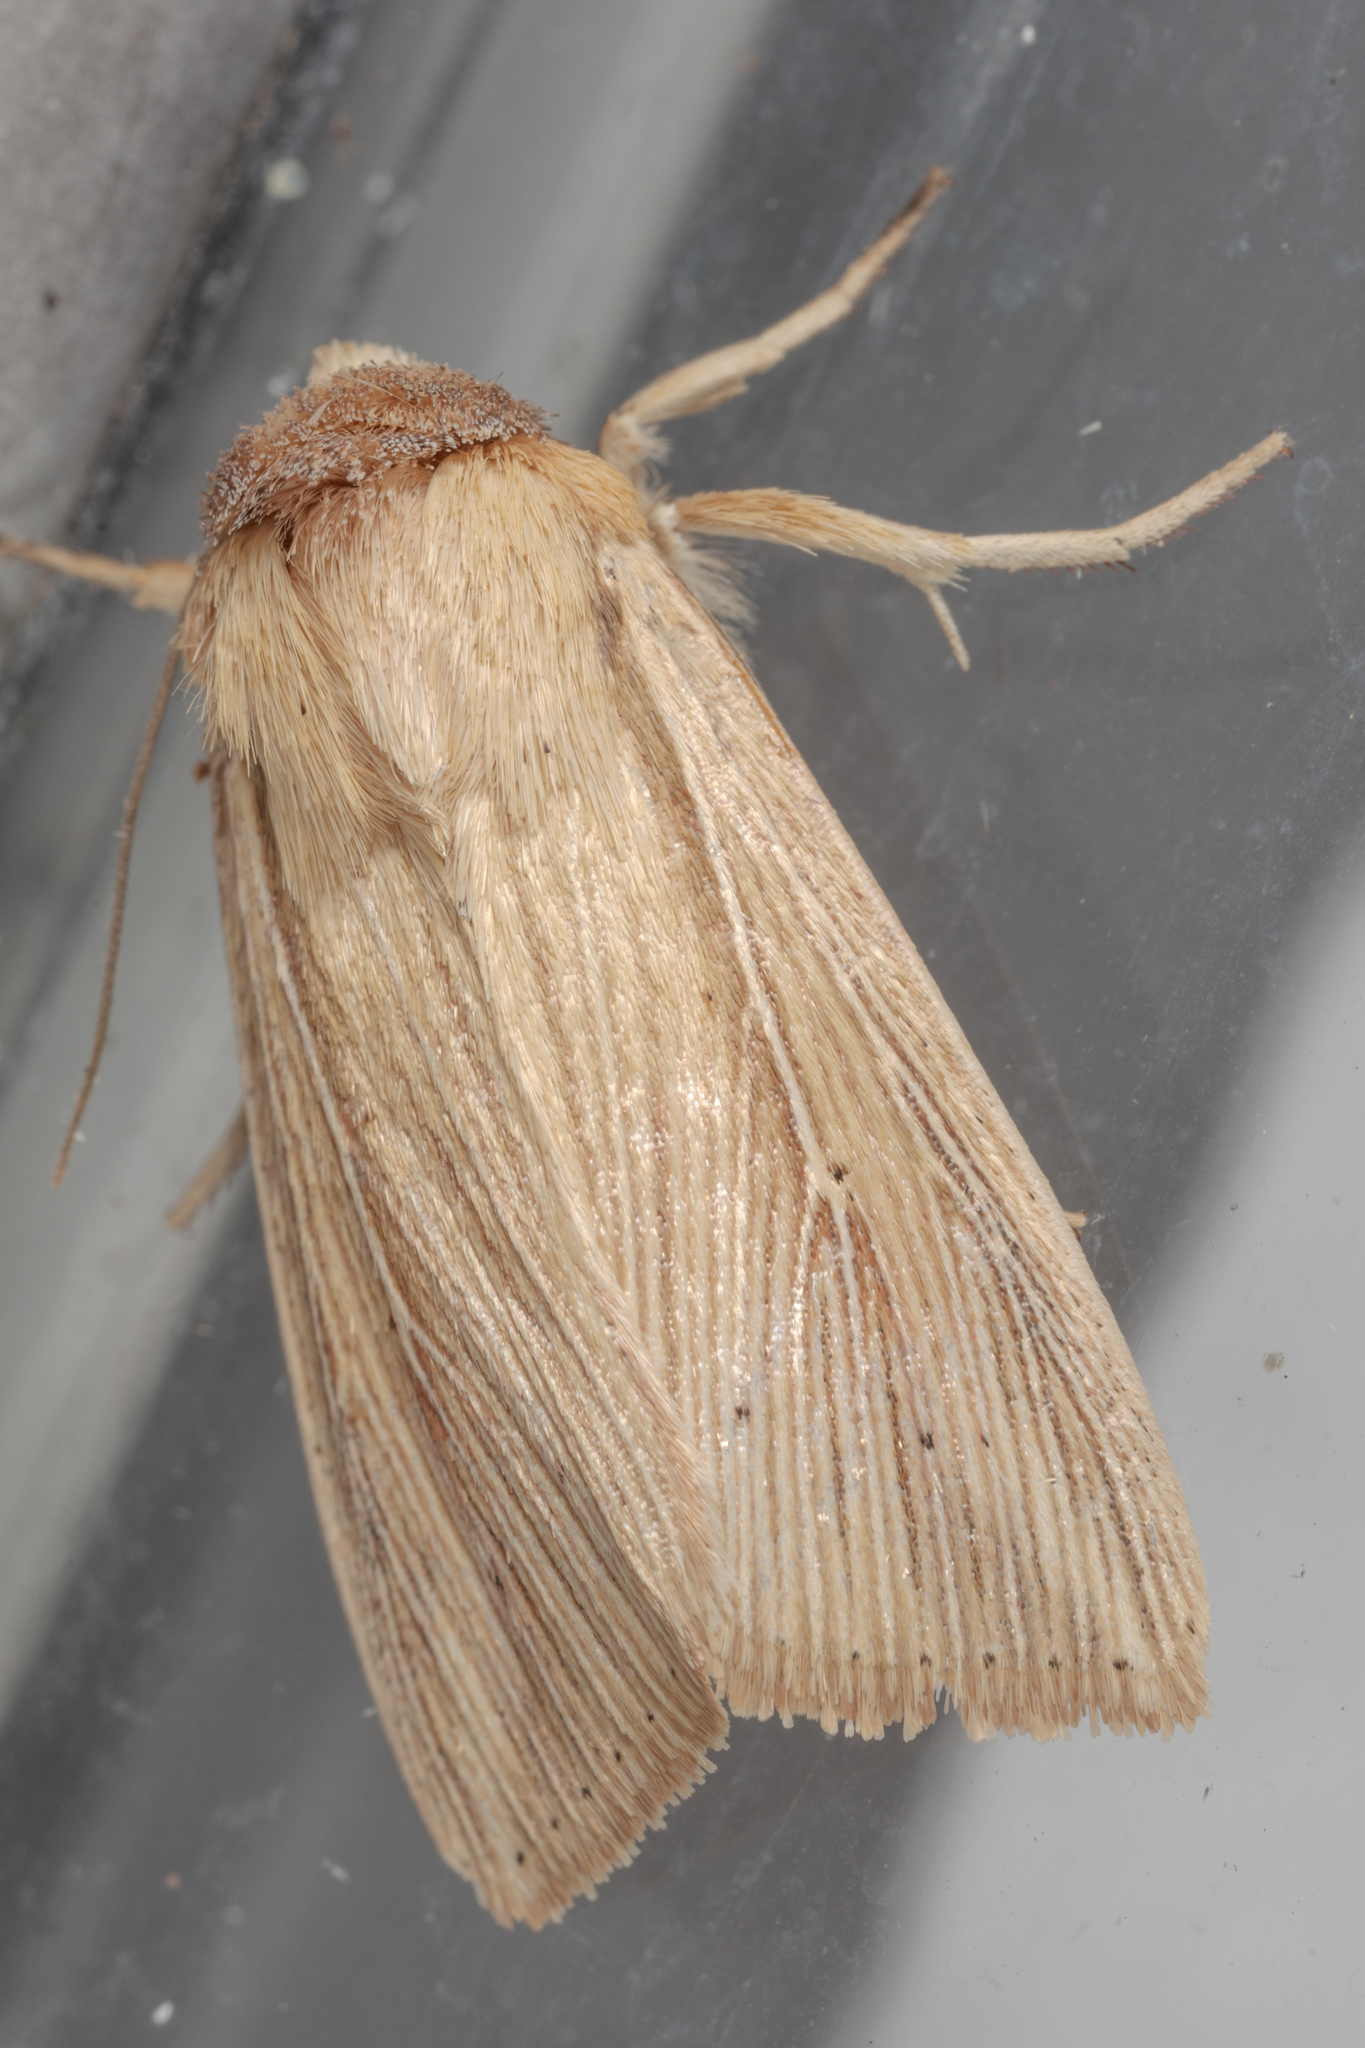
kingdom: Animalia
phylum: Arthropoda
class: Insecta
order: Lepidoptera
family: Noctuidae
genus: Leucania
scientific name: Leucania adjuta
